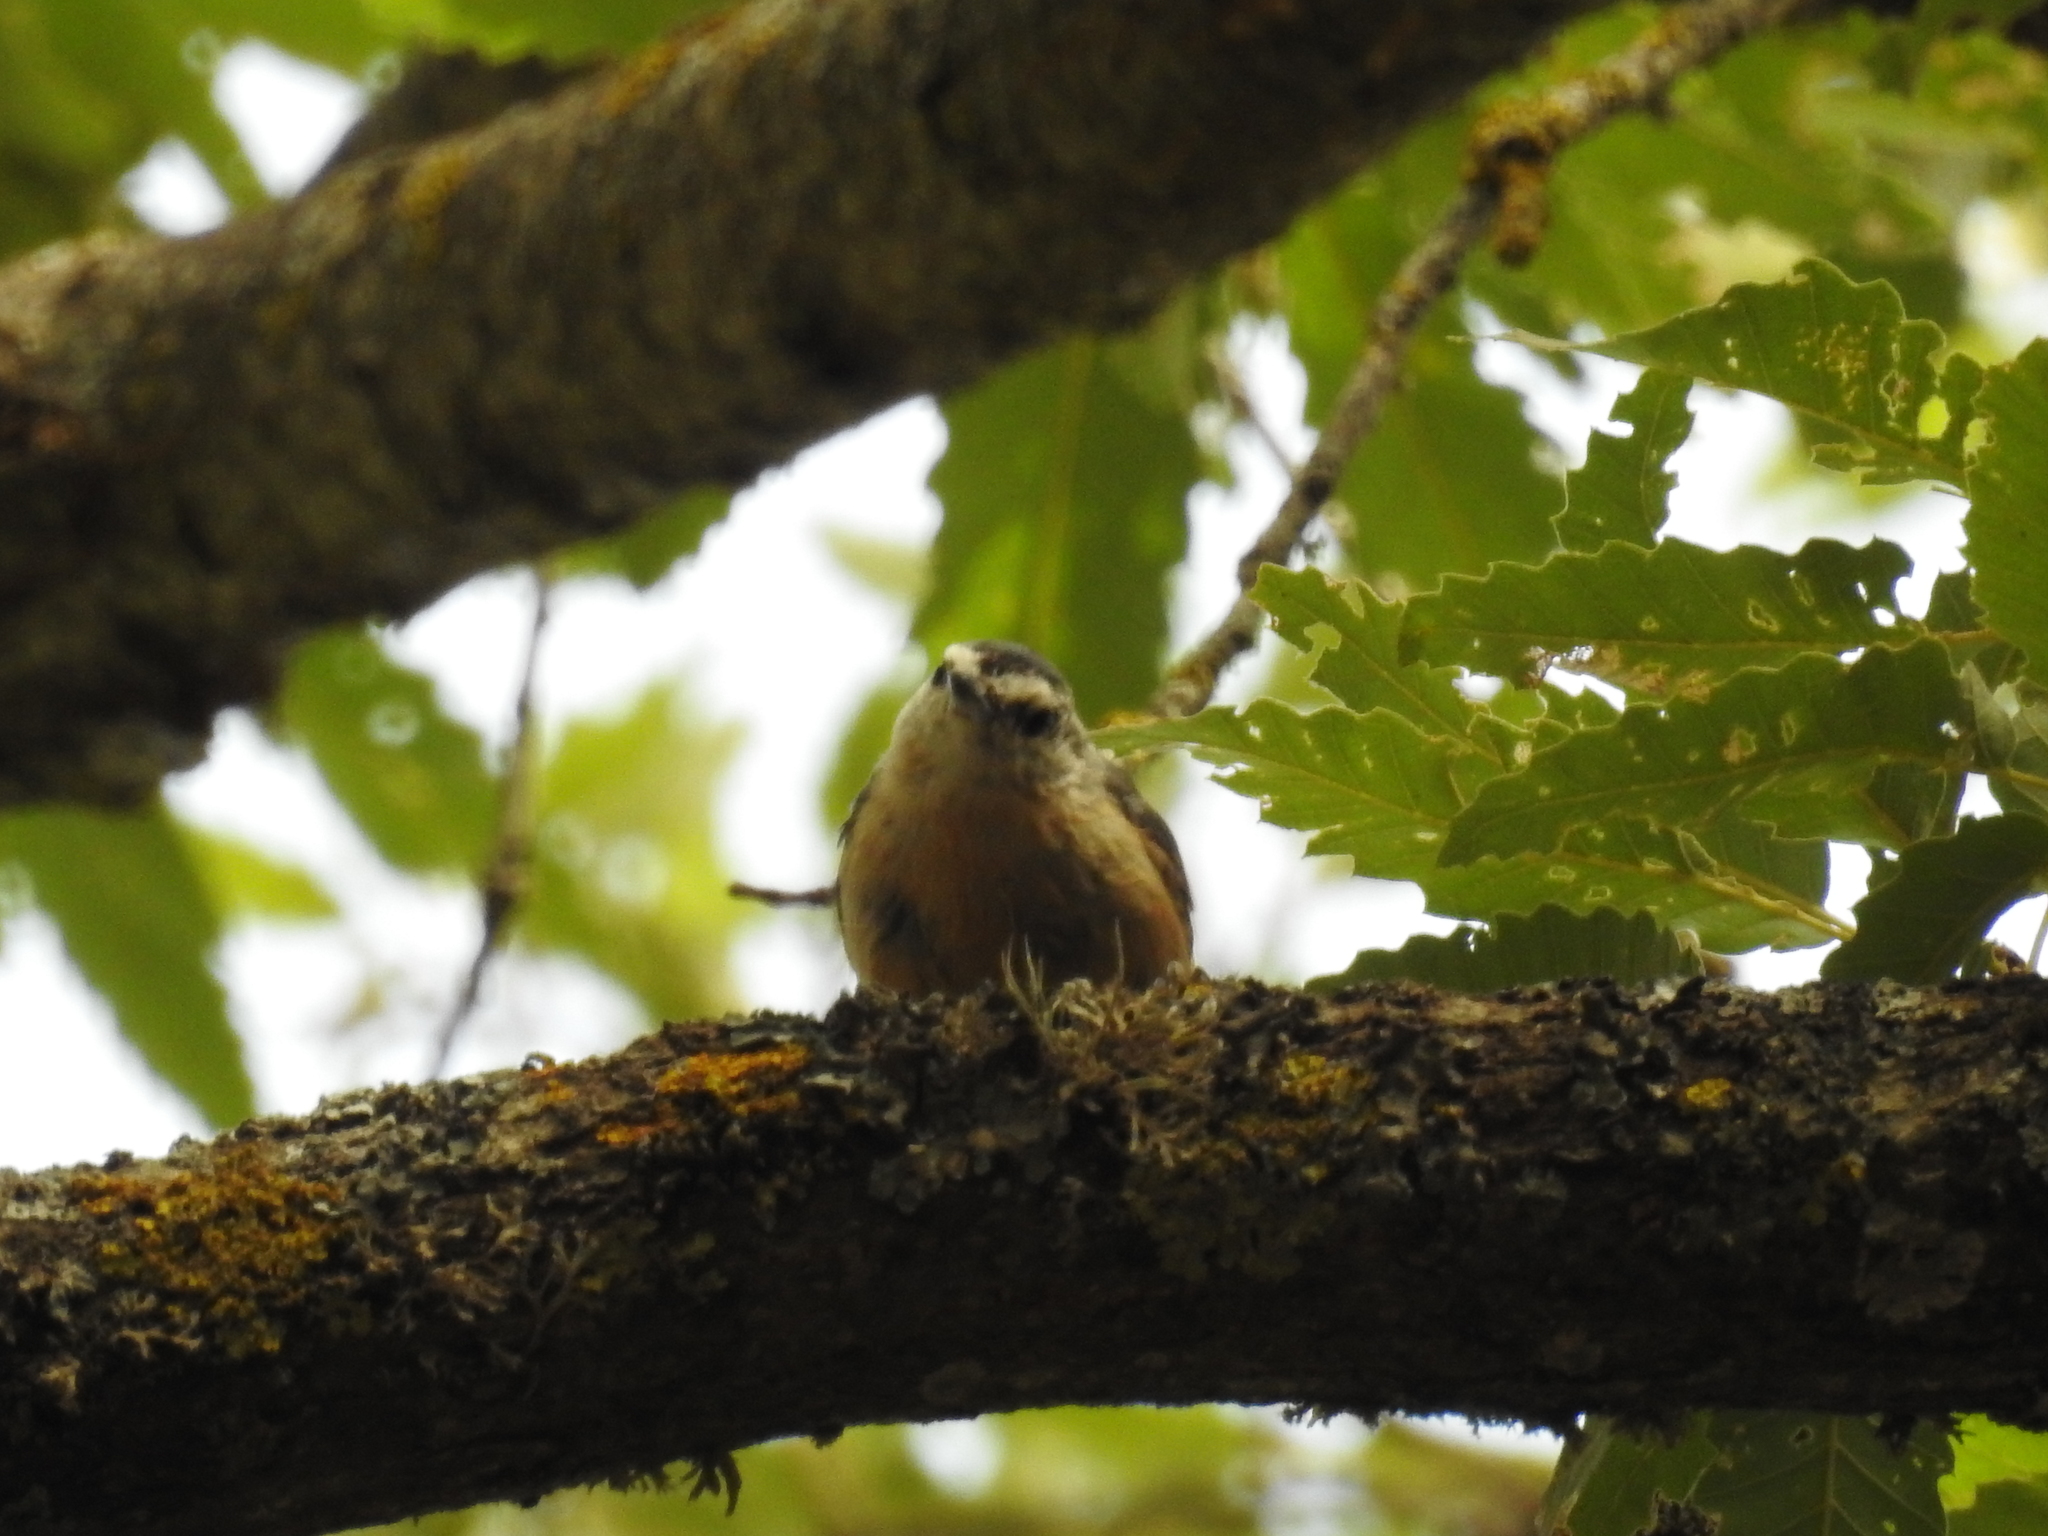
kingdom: Animalia
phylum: Chordata
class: Aves
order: Passeriformes
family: Sittidae
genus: Sitta
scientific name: Sitta ledanti
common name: Algerian nuthatch
